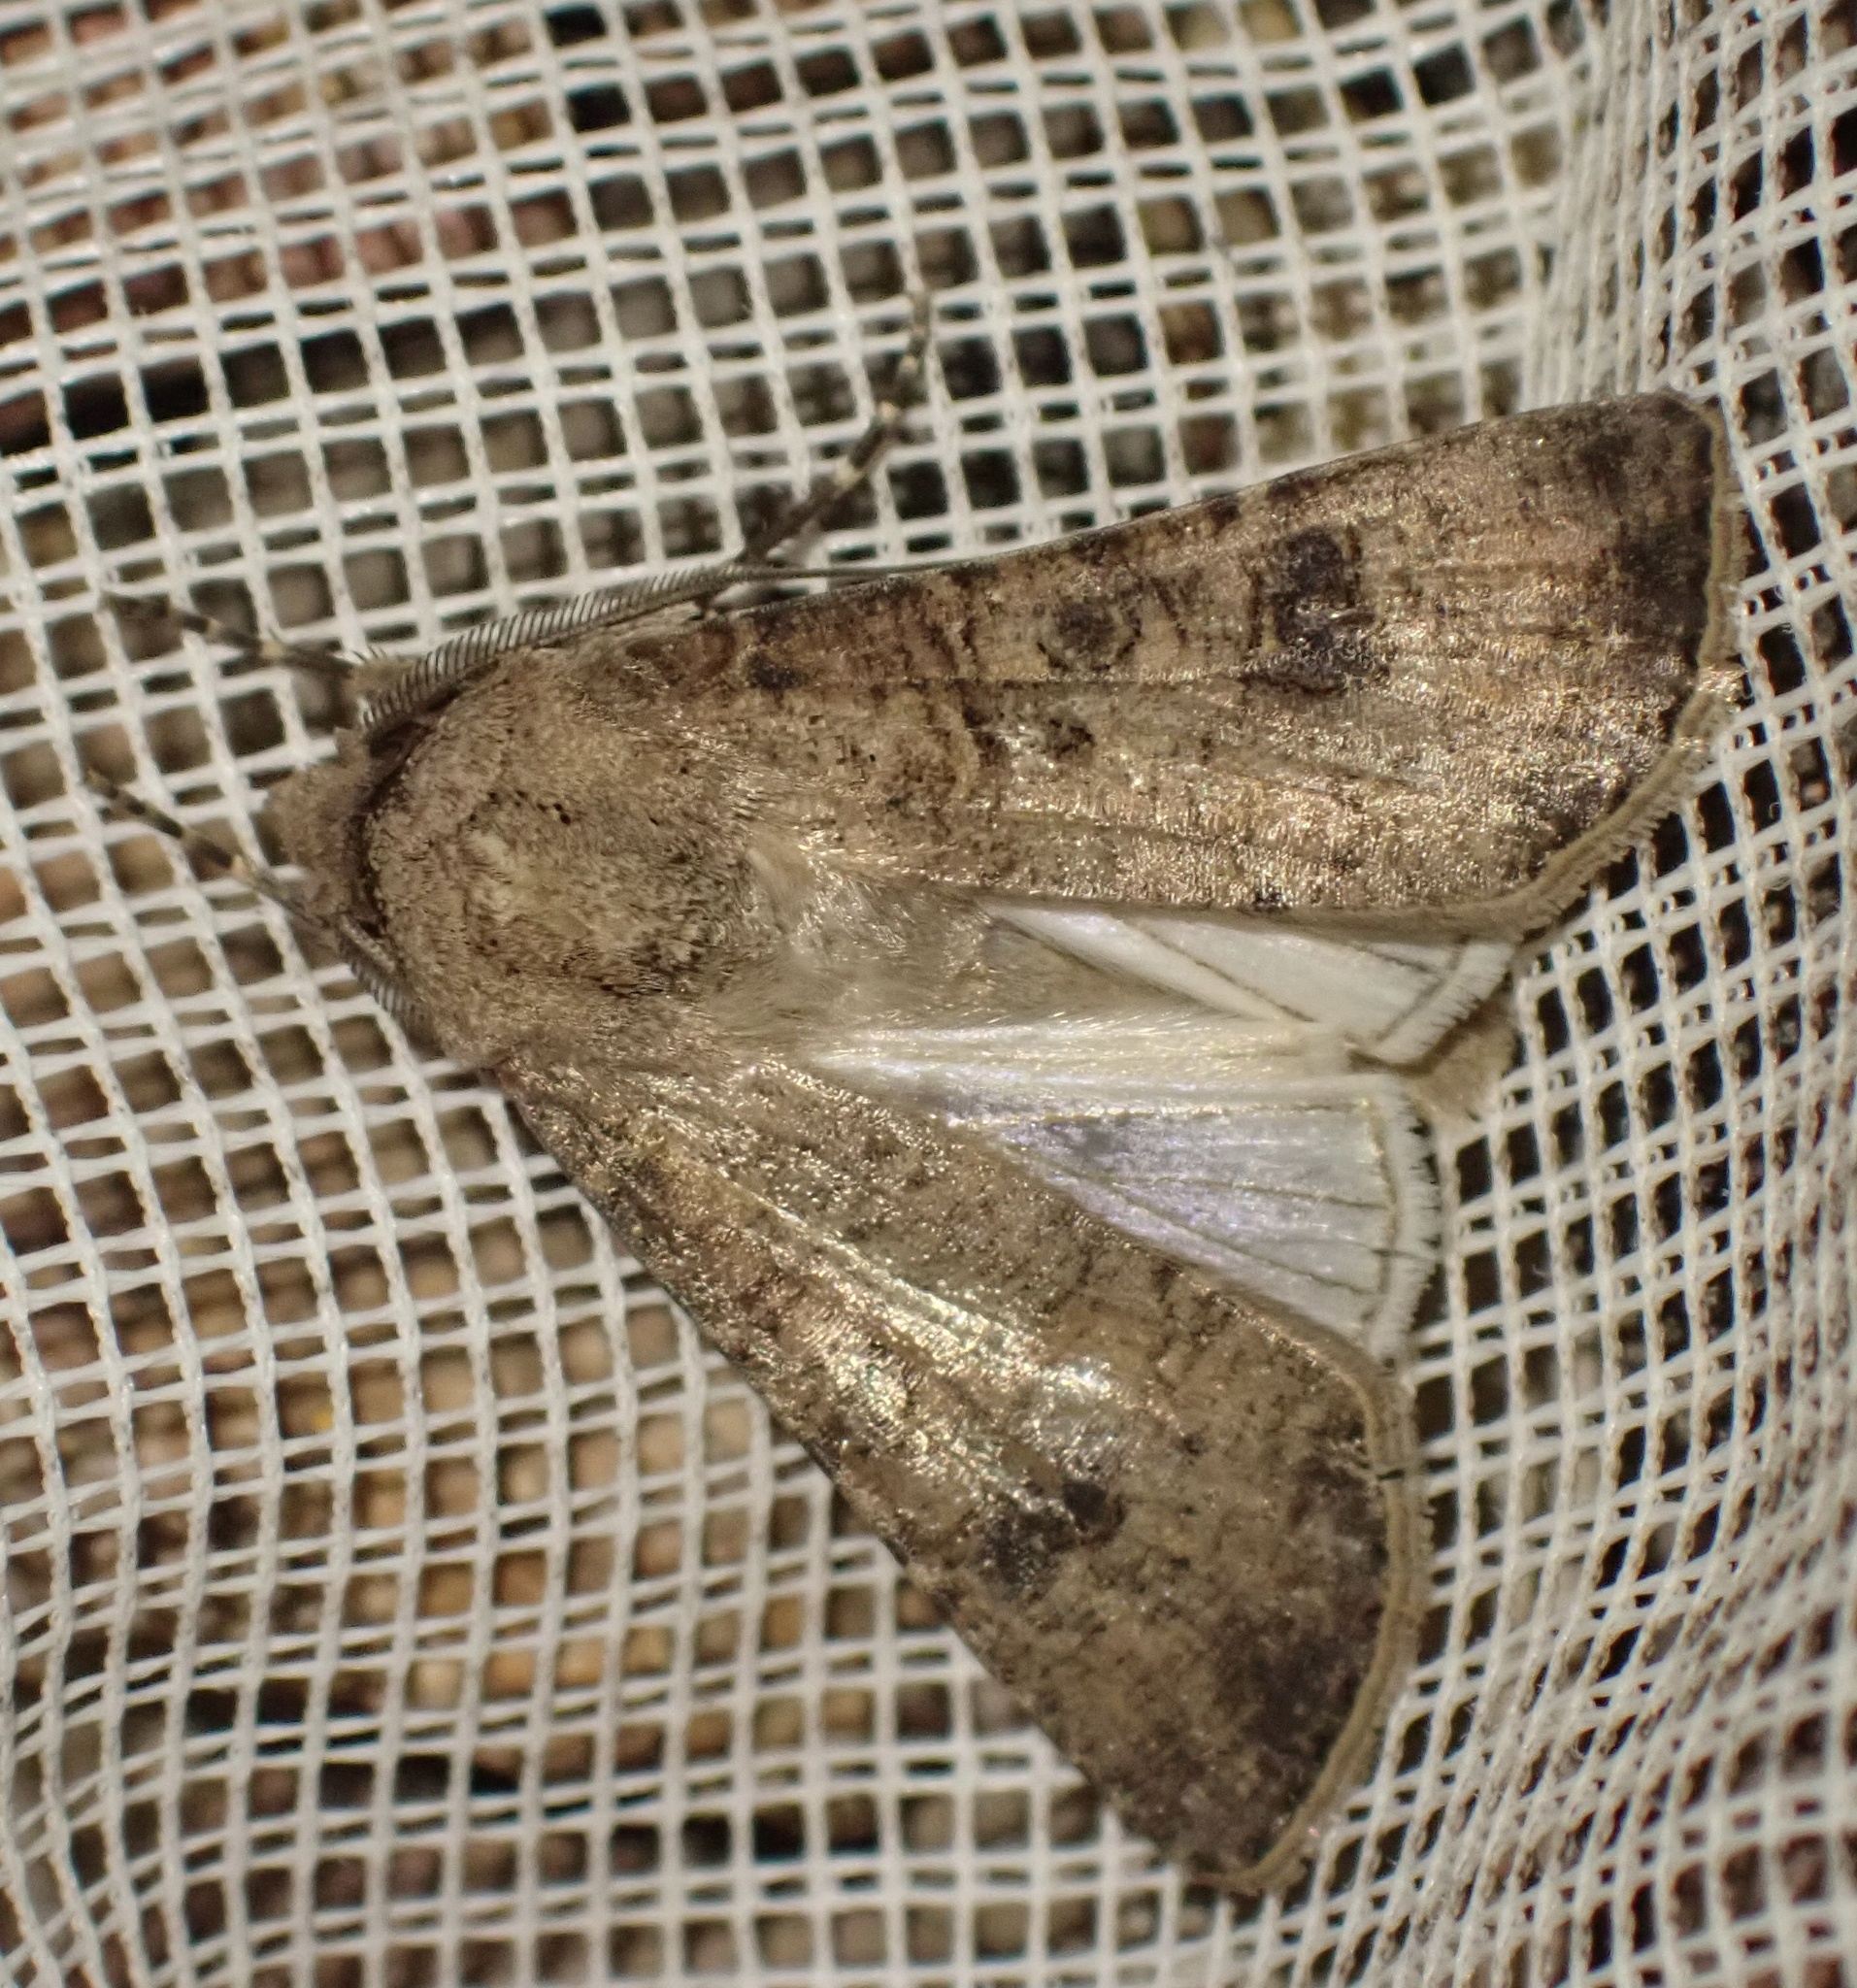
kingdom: Animalia
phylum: Arthropoda
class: Insecta
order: Lepidoptera
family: Noctuidae
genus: Agrotis
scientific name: Agrotis segetum
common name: Turnip moth
